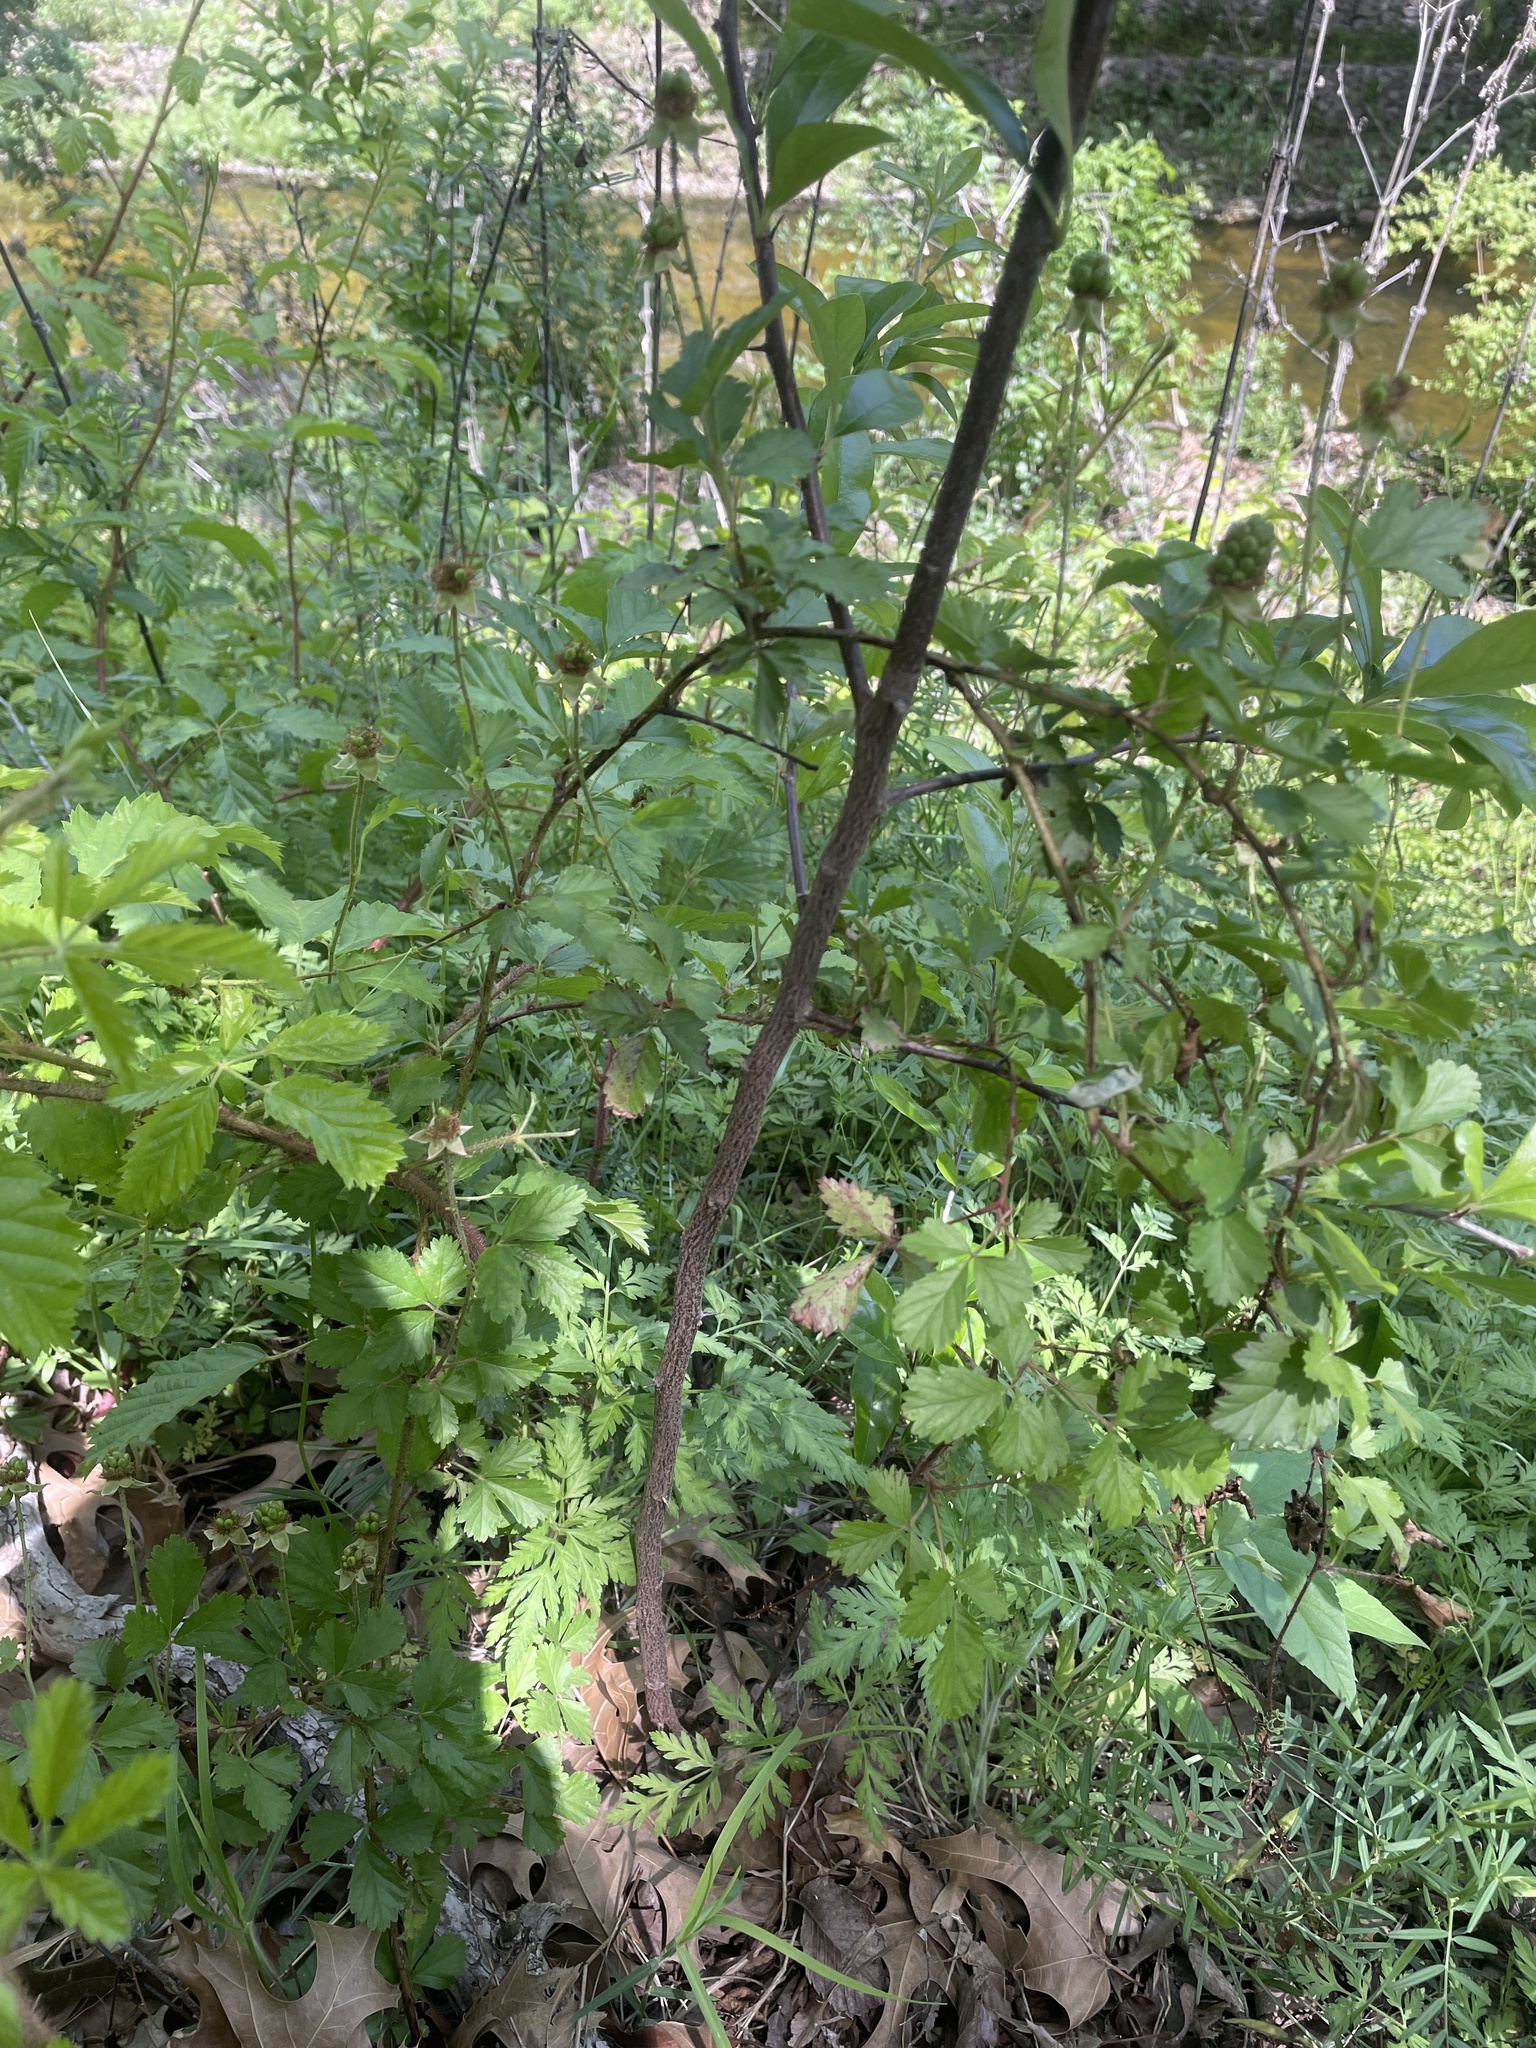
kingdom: Plantae
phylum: Tracheophyta
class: Magnoliopsida
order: Rosales
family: Rosaceae
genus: Rubus
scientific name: Rubus trivialis
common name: Southern dewberry
